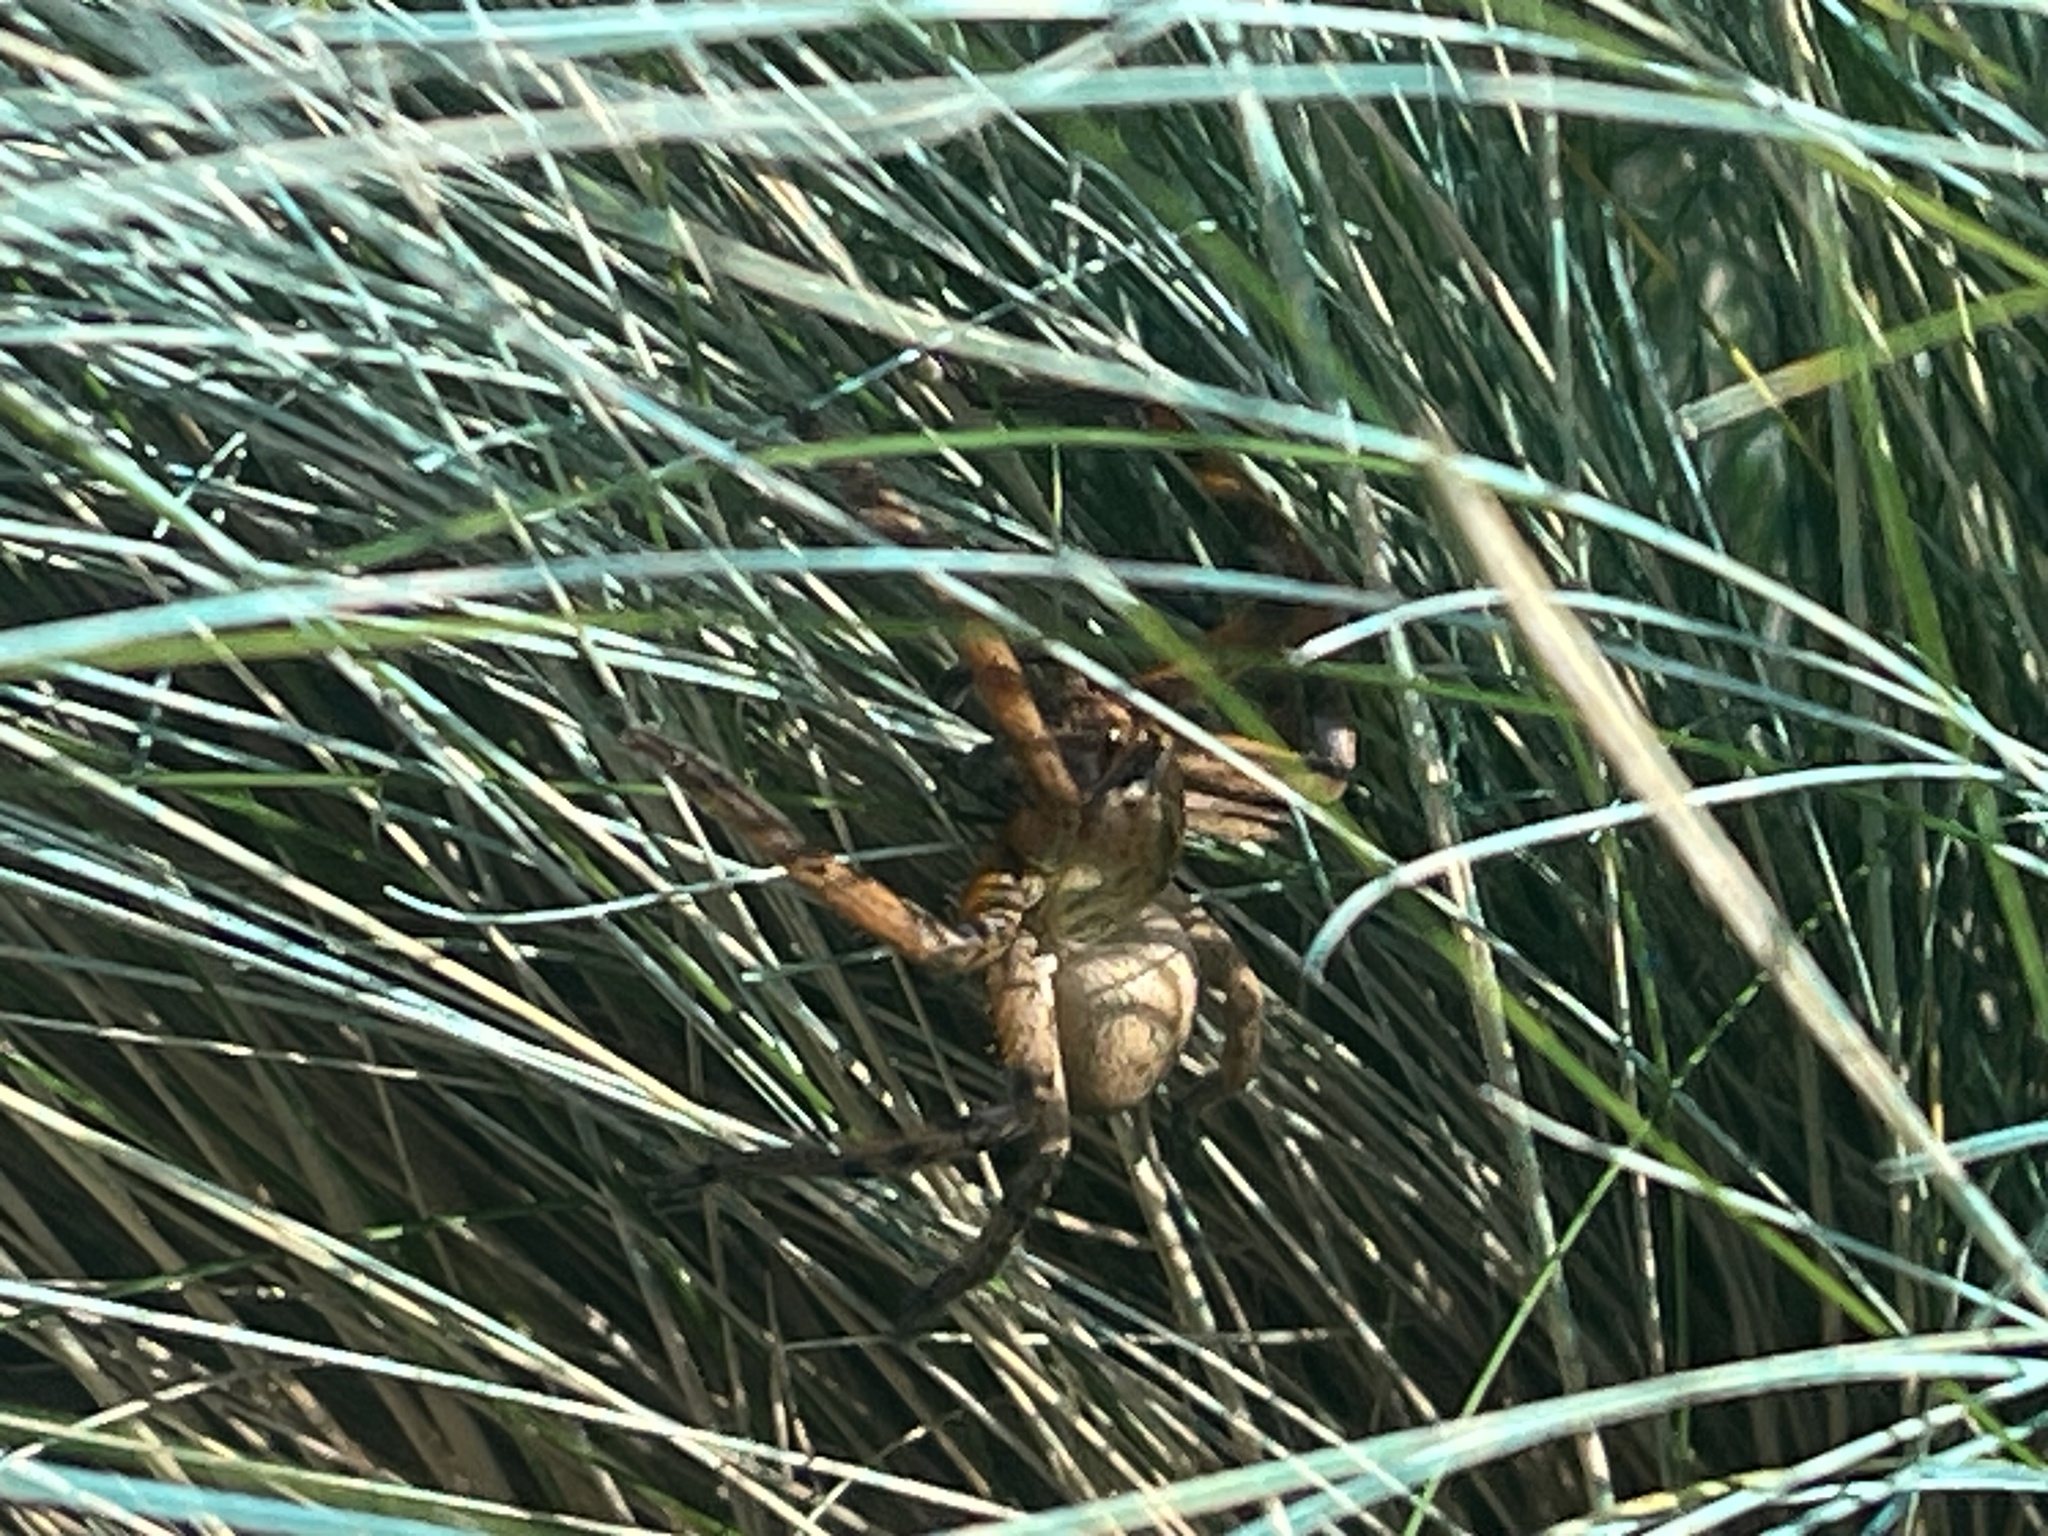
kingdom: Animalia
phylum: Arthropoda
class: Arachnida
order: Araneae
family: Sparassidae
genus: Neosparassus
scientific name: Neosparassus patellatus
